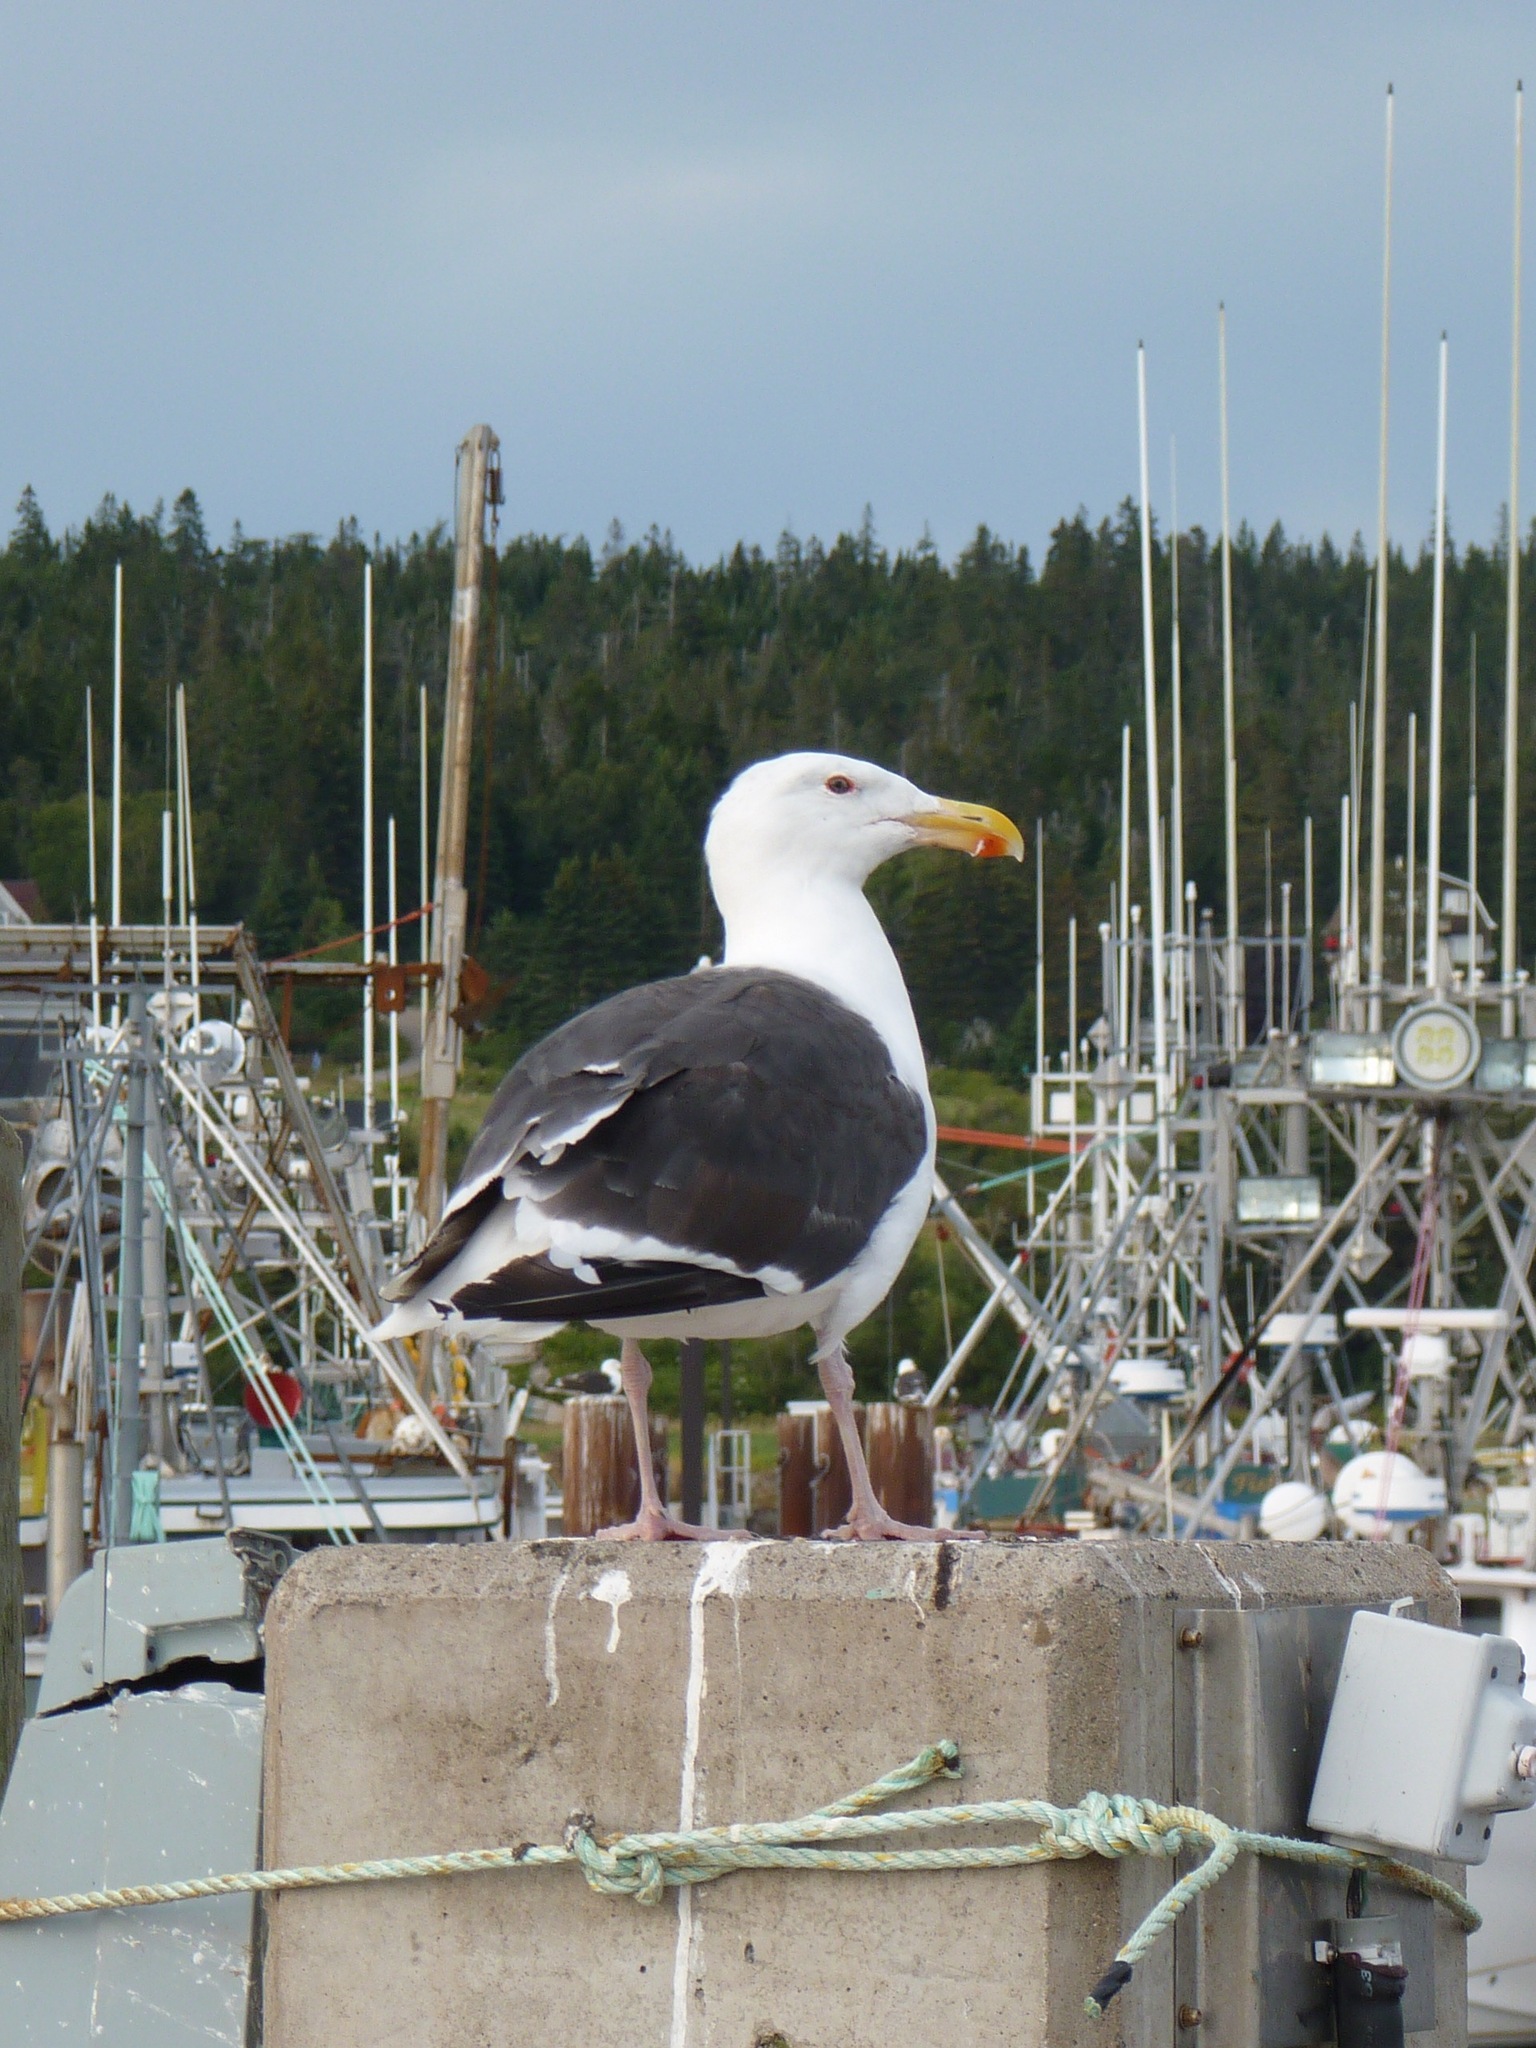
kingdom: Animalia
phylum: Chordata
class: Aves
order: Charadriiformes
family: Laridae
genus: Larus
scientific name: Larus marinus
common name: Great black-backed gull
